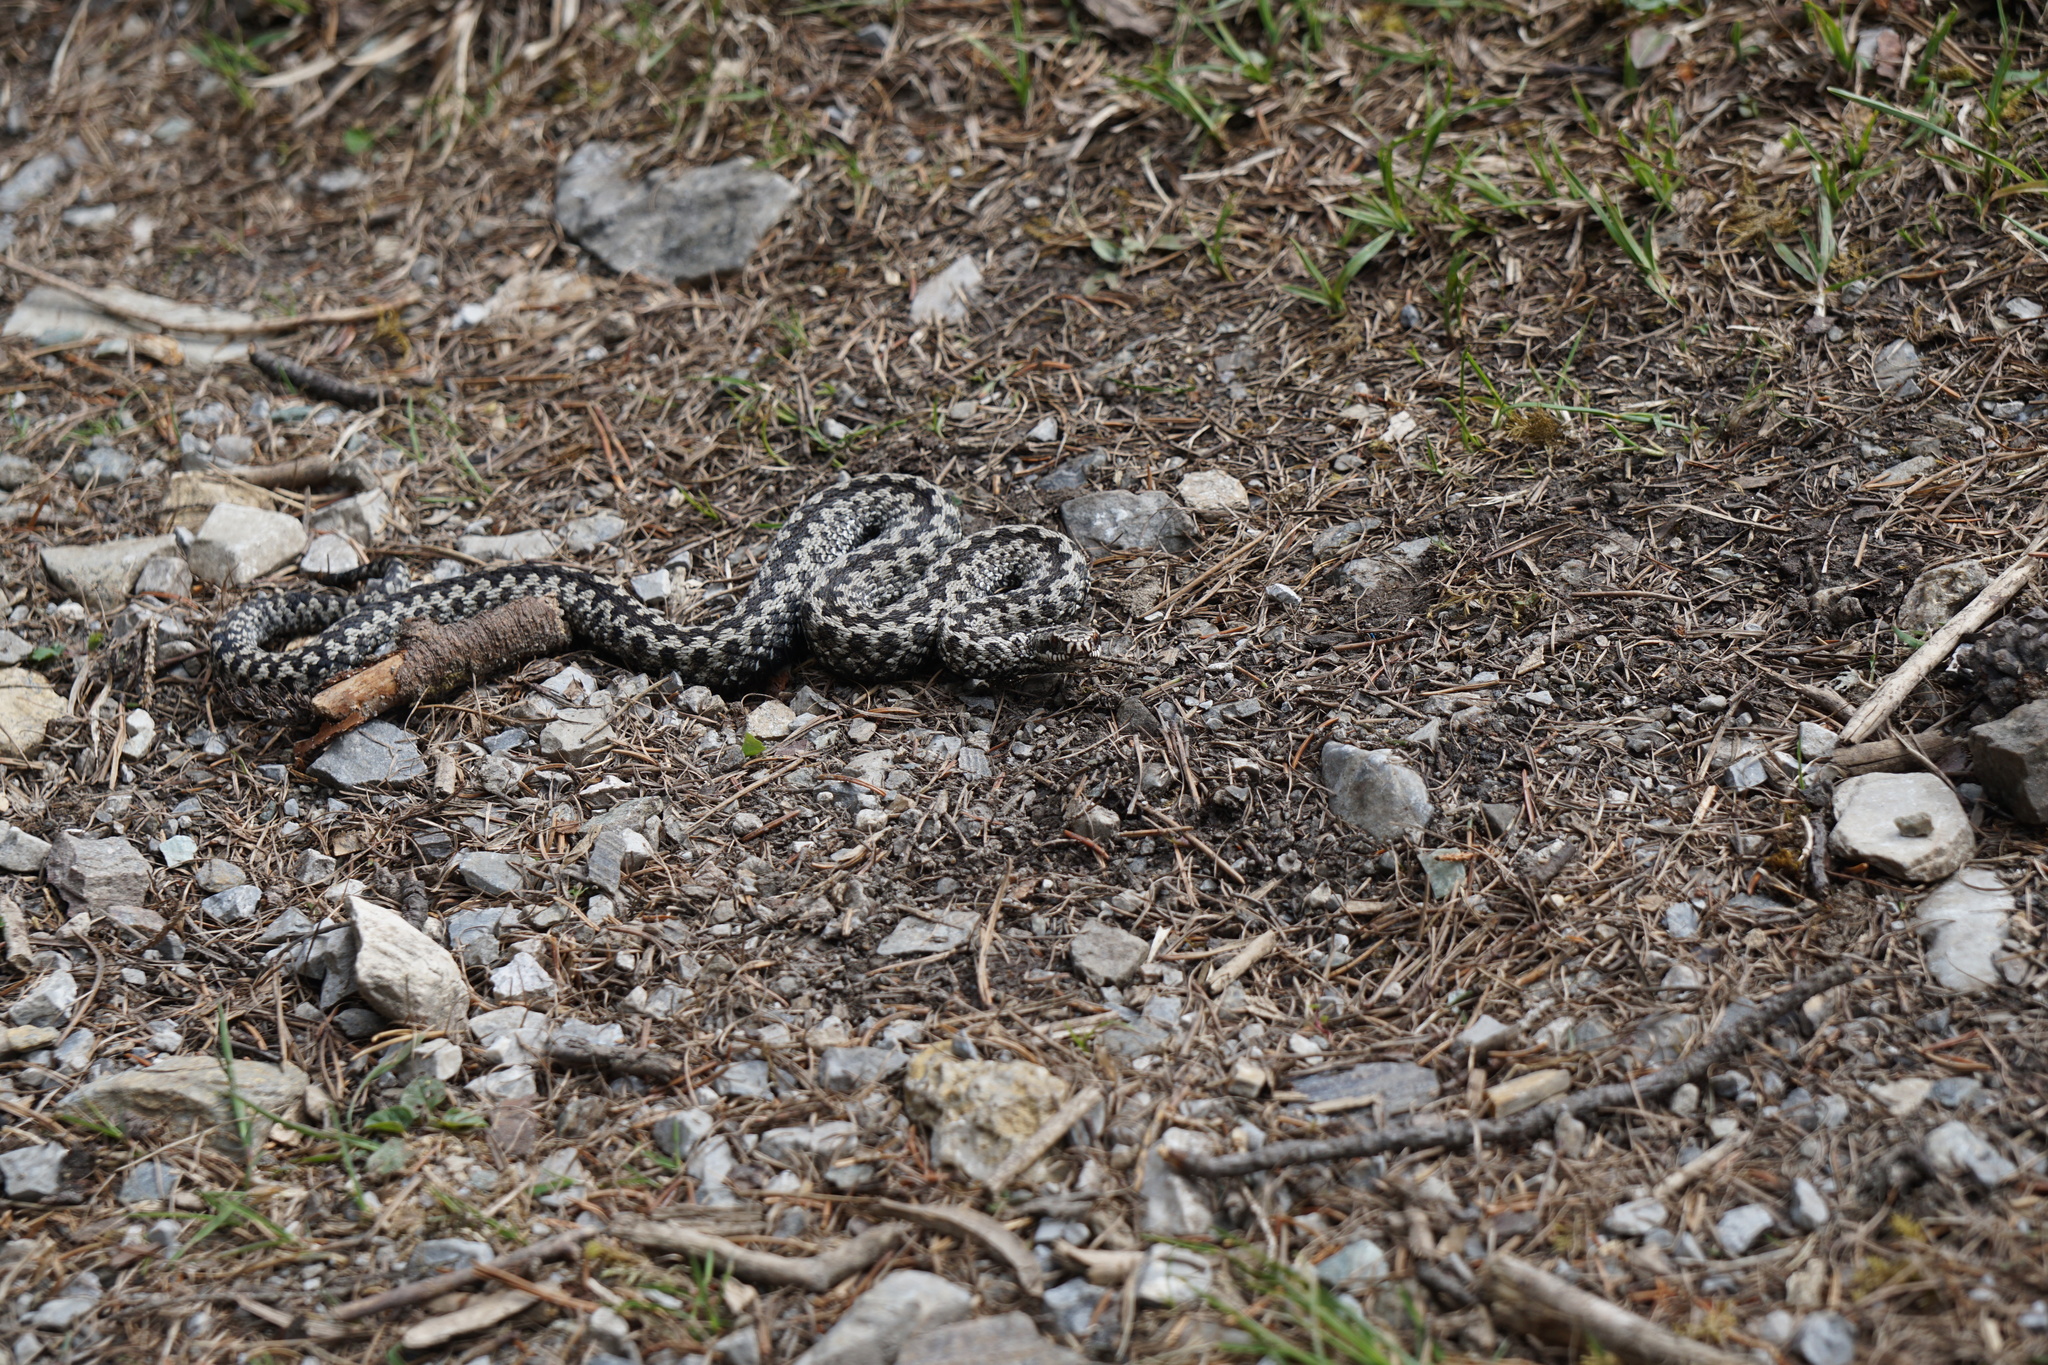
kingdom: Animalia
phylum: Chordata
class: Squamata
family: Viperidae
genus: Vipera
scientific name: Vipera berus
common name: Adder
